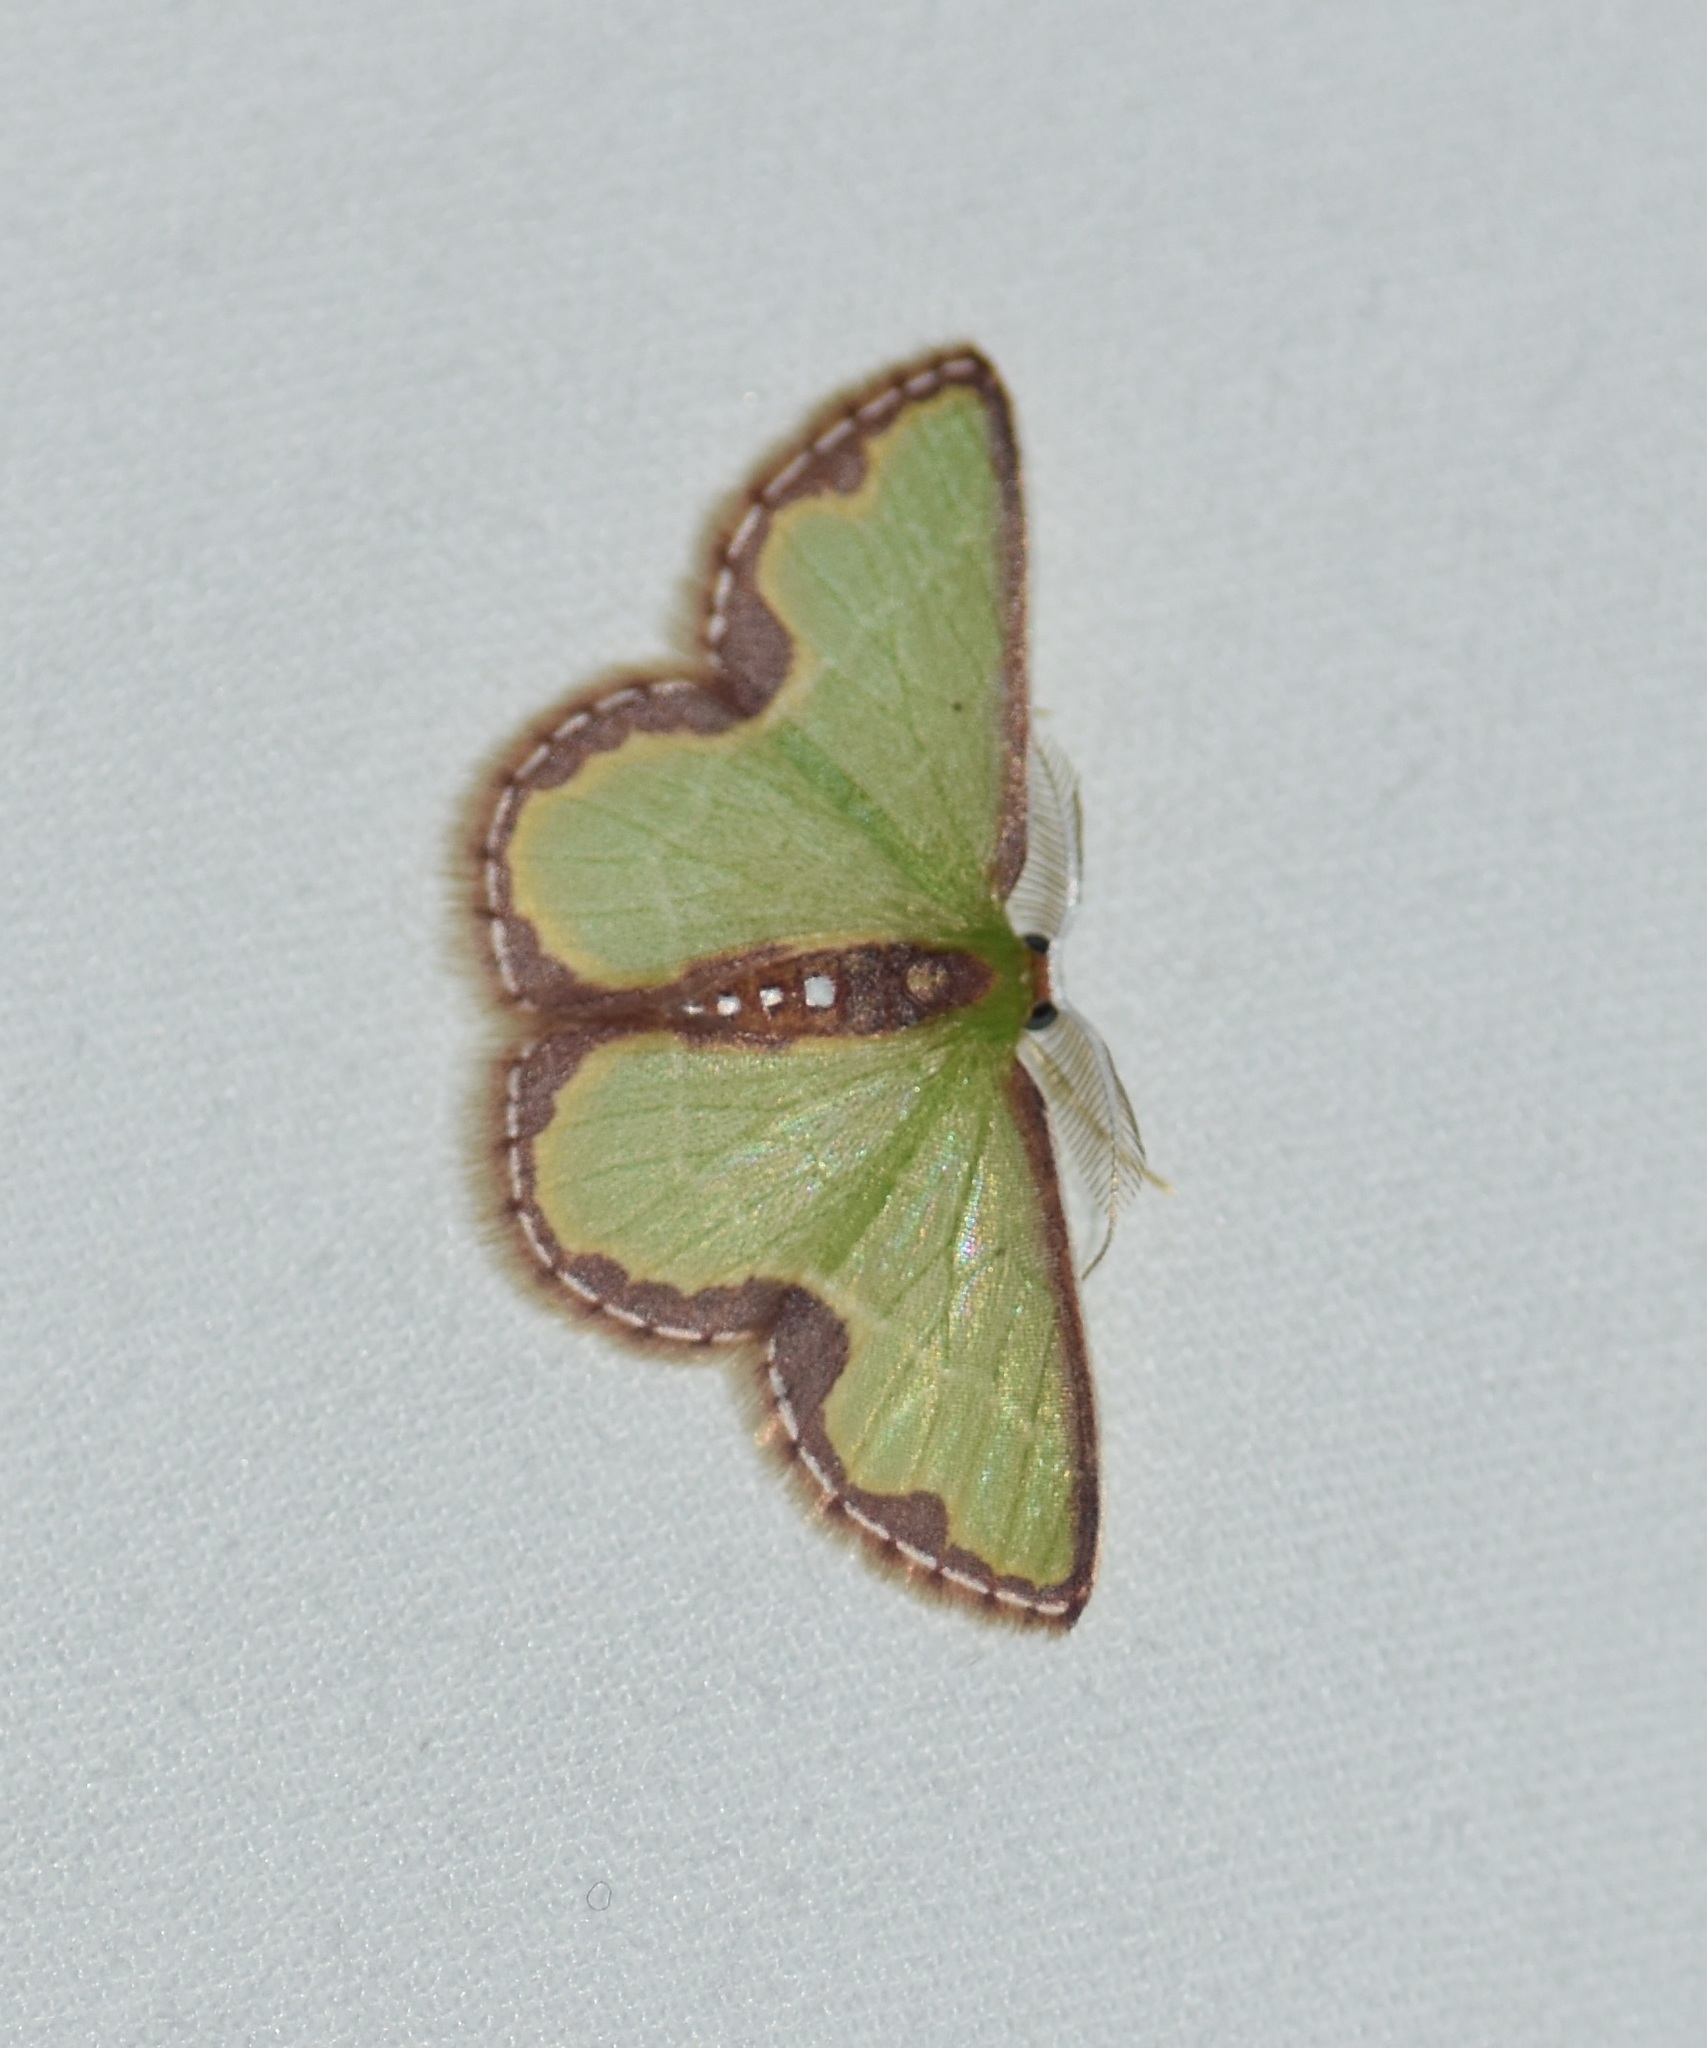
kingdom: Animalia
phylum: Arthropoda
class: Insecta
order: Lepidoptera
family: Geometridae
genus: Synchlora
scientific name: Synchlora expulsata
